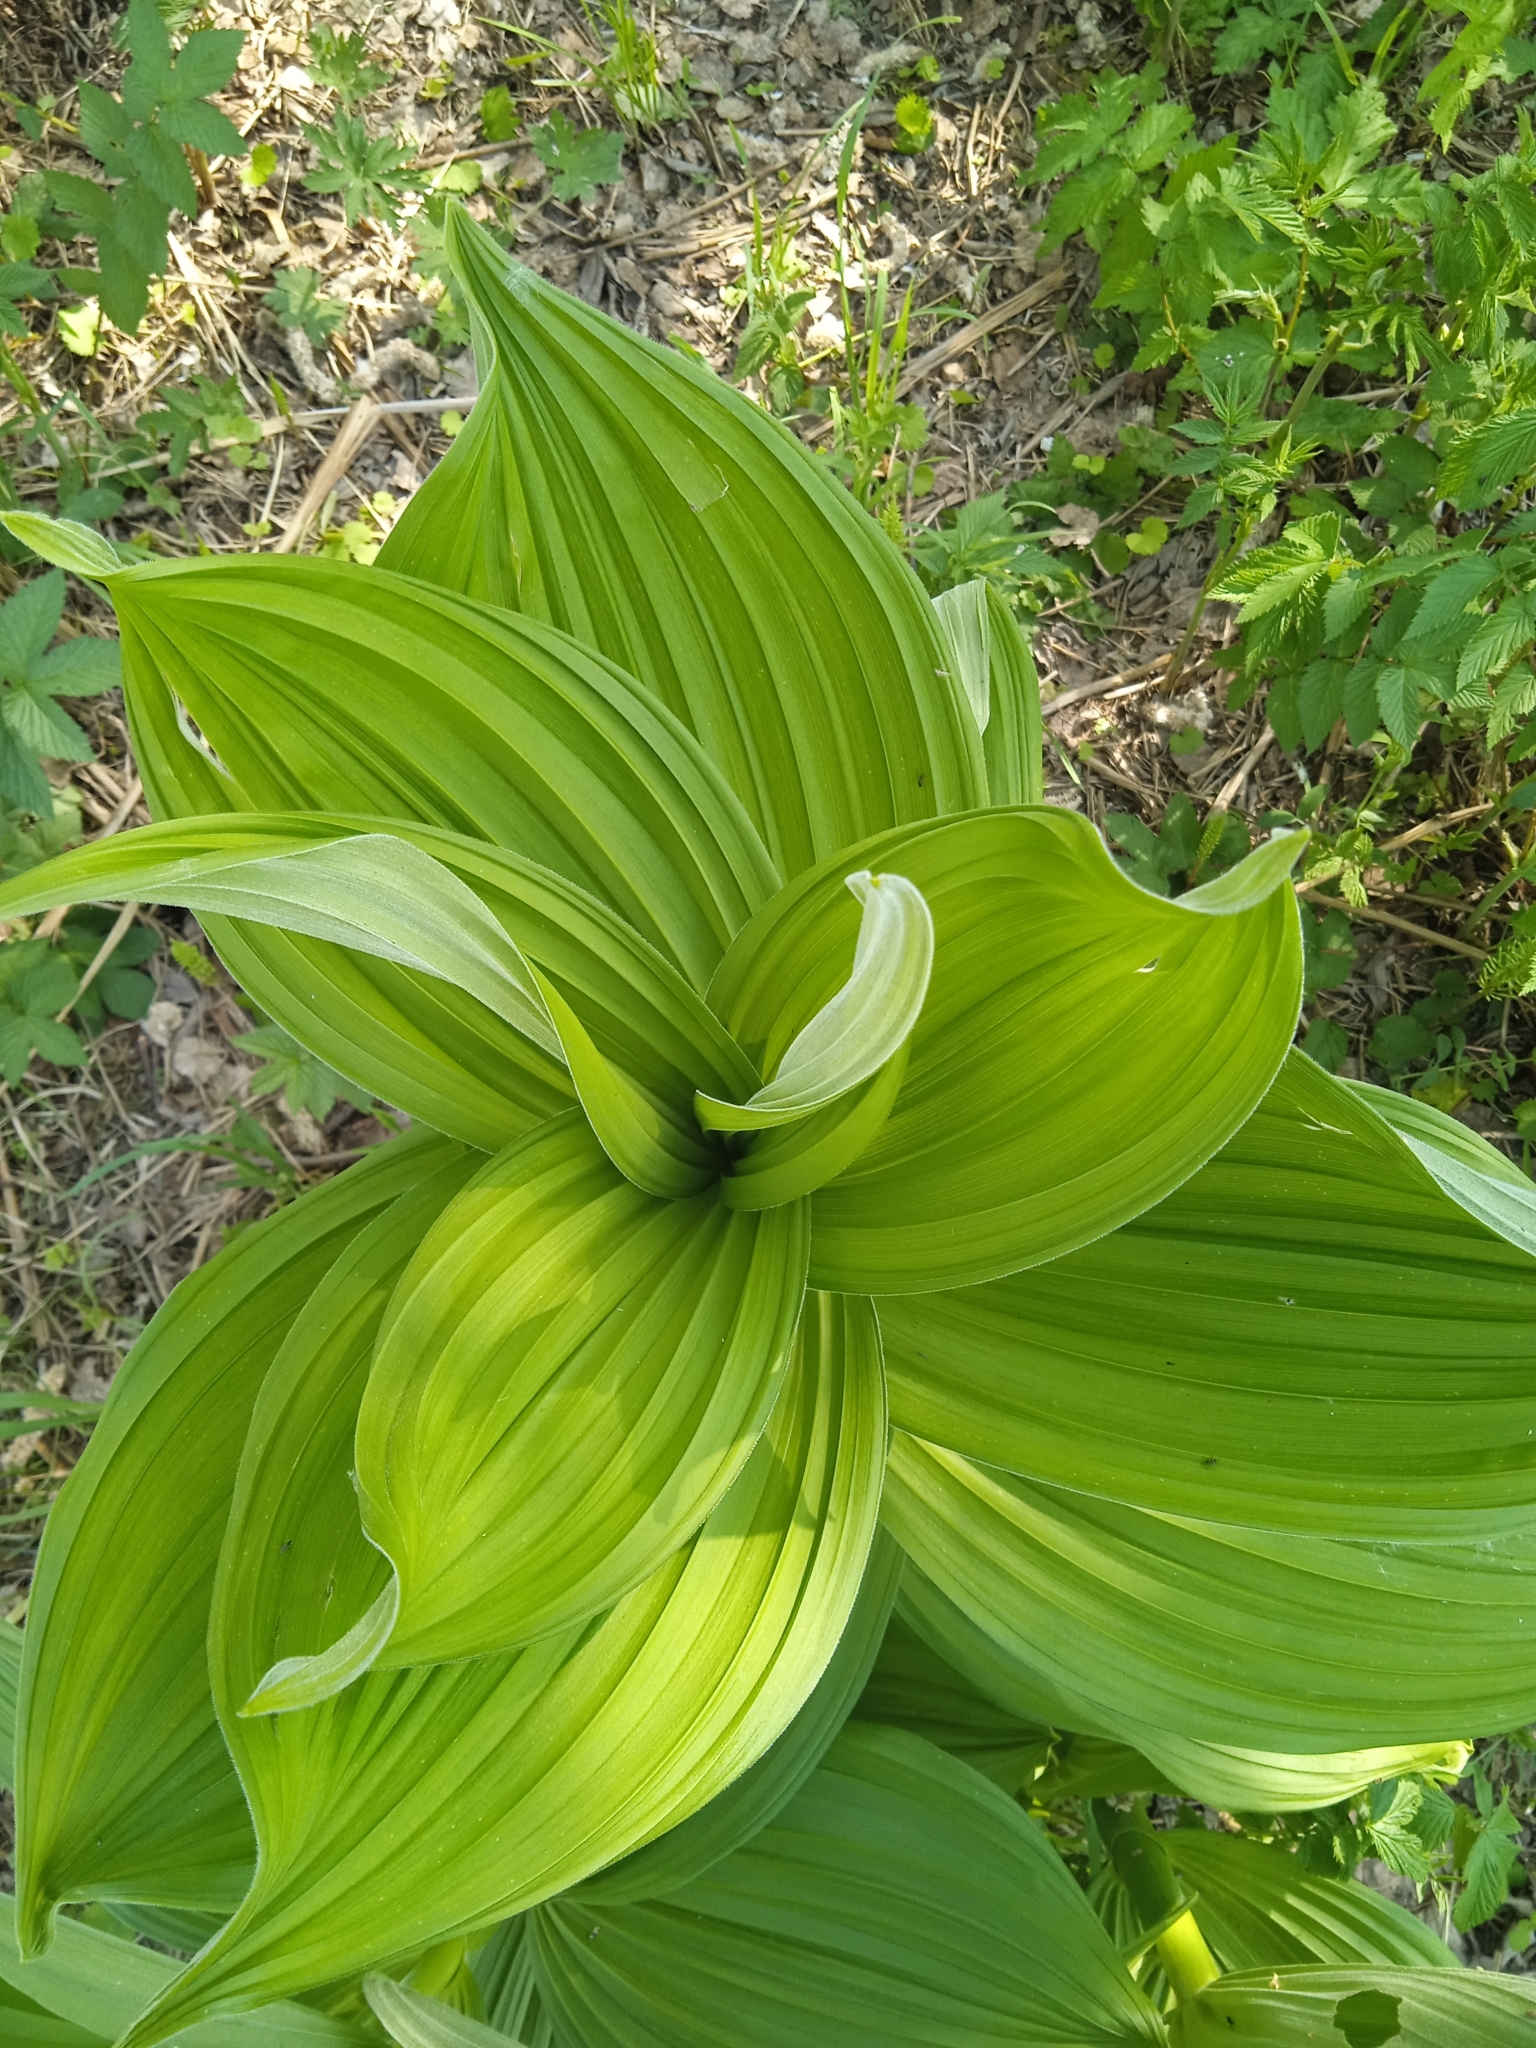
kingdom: Plantae
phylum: Tracheophyta
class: Liliopsida
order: Liliales
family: Melanthiaceae
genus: Veratrum
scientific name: Veratrum lobelianum
